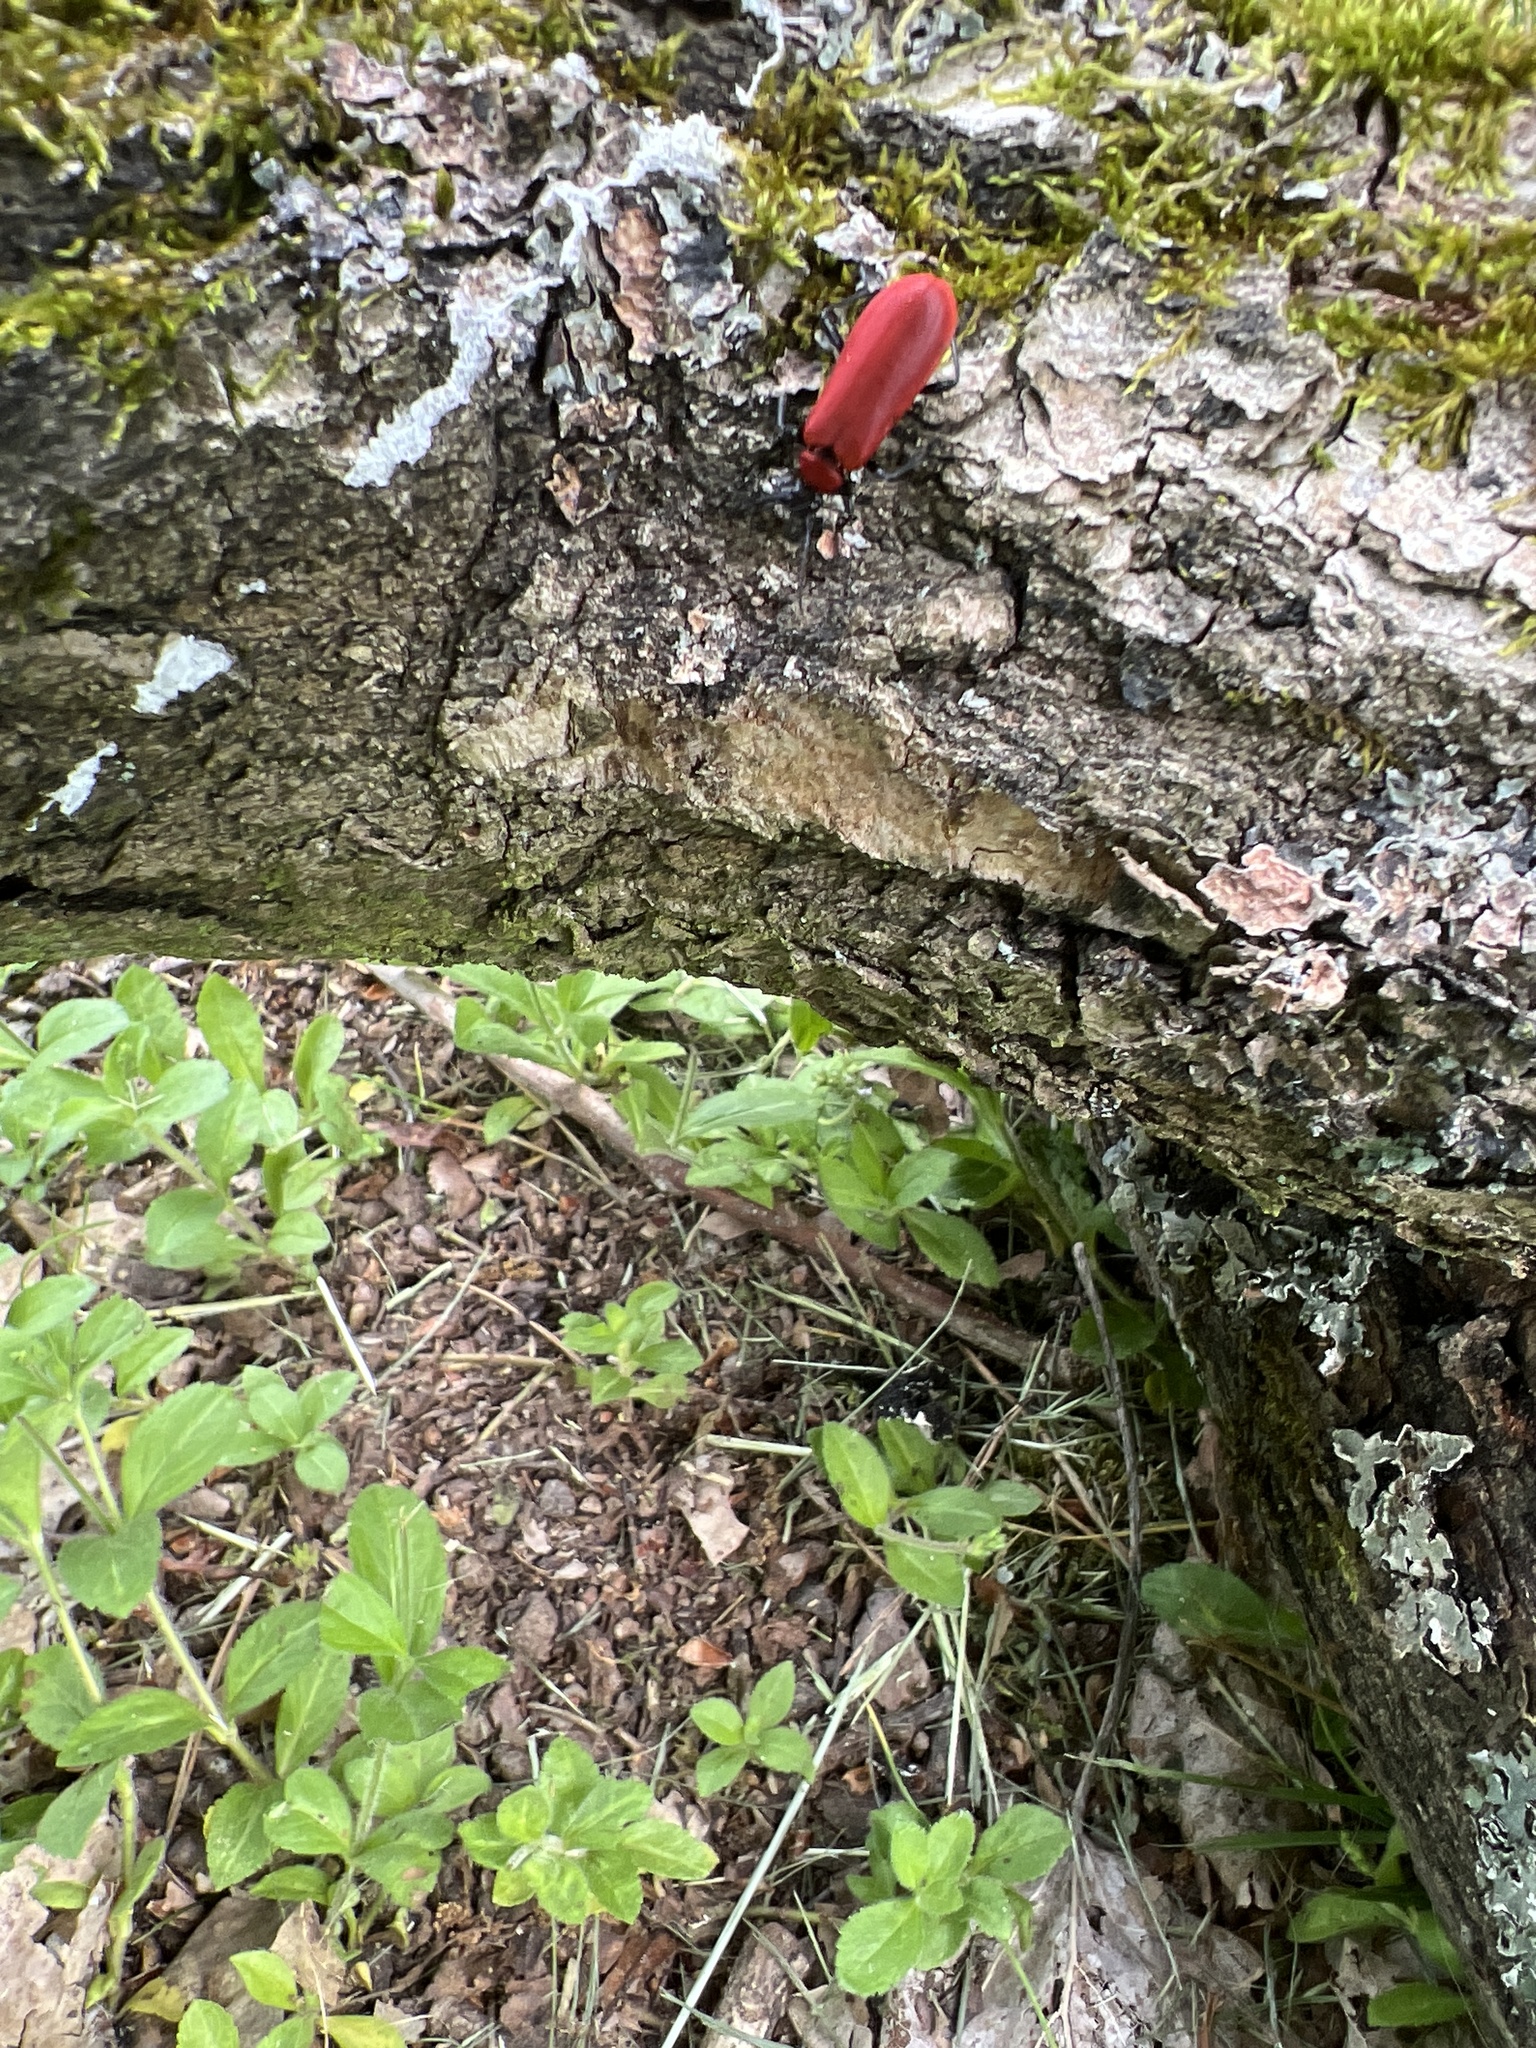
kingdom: Animalia
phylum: Arthropoda
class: Insecta
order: Coleoptera
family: Pyrochroidae
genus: Pyrochroa
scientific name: Pyrochroa coccinea
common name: Black-headed cardinal beetle
